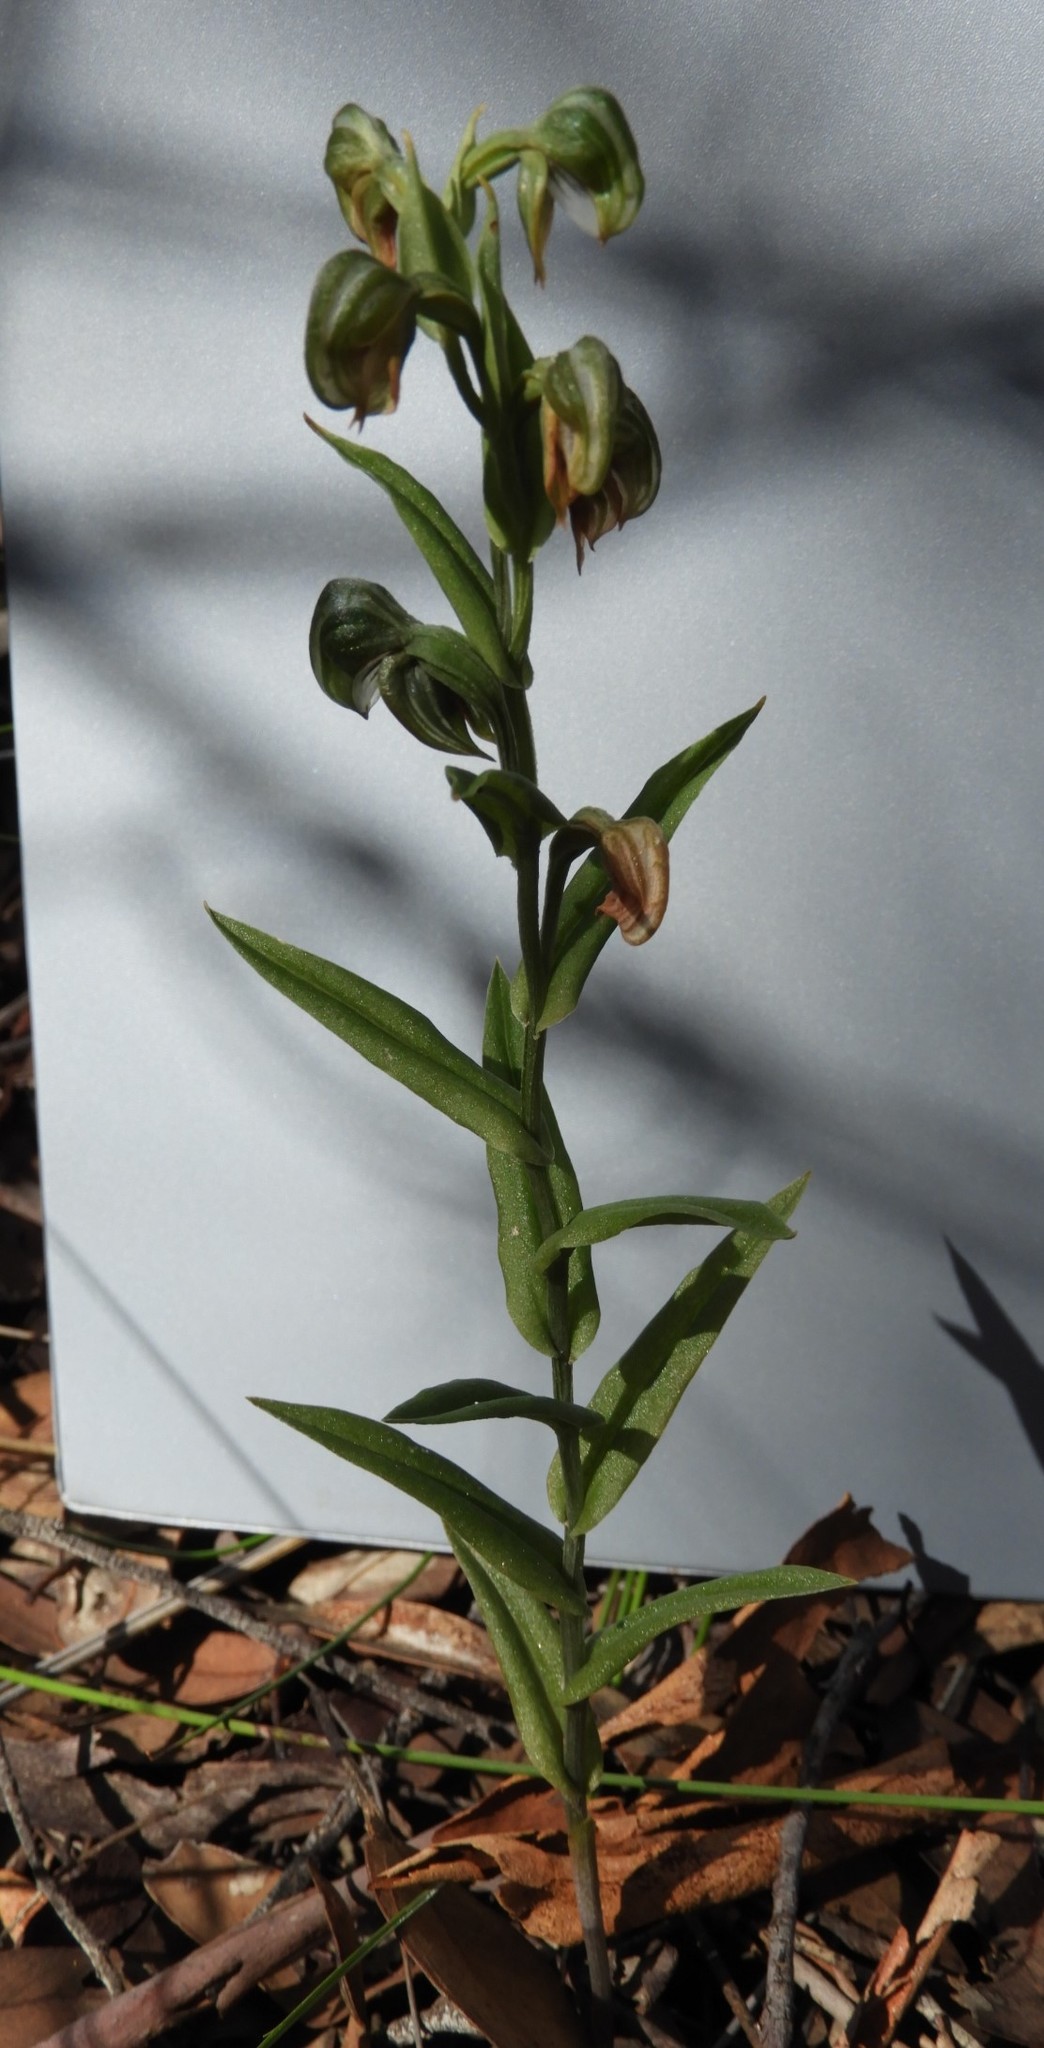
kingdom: Plantae
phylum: Tracheophyta
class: Liliopsida
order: Asparagales
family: Orchidaceae
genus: Pterostylis
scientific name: Pterostylis vittata
